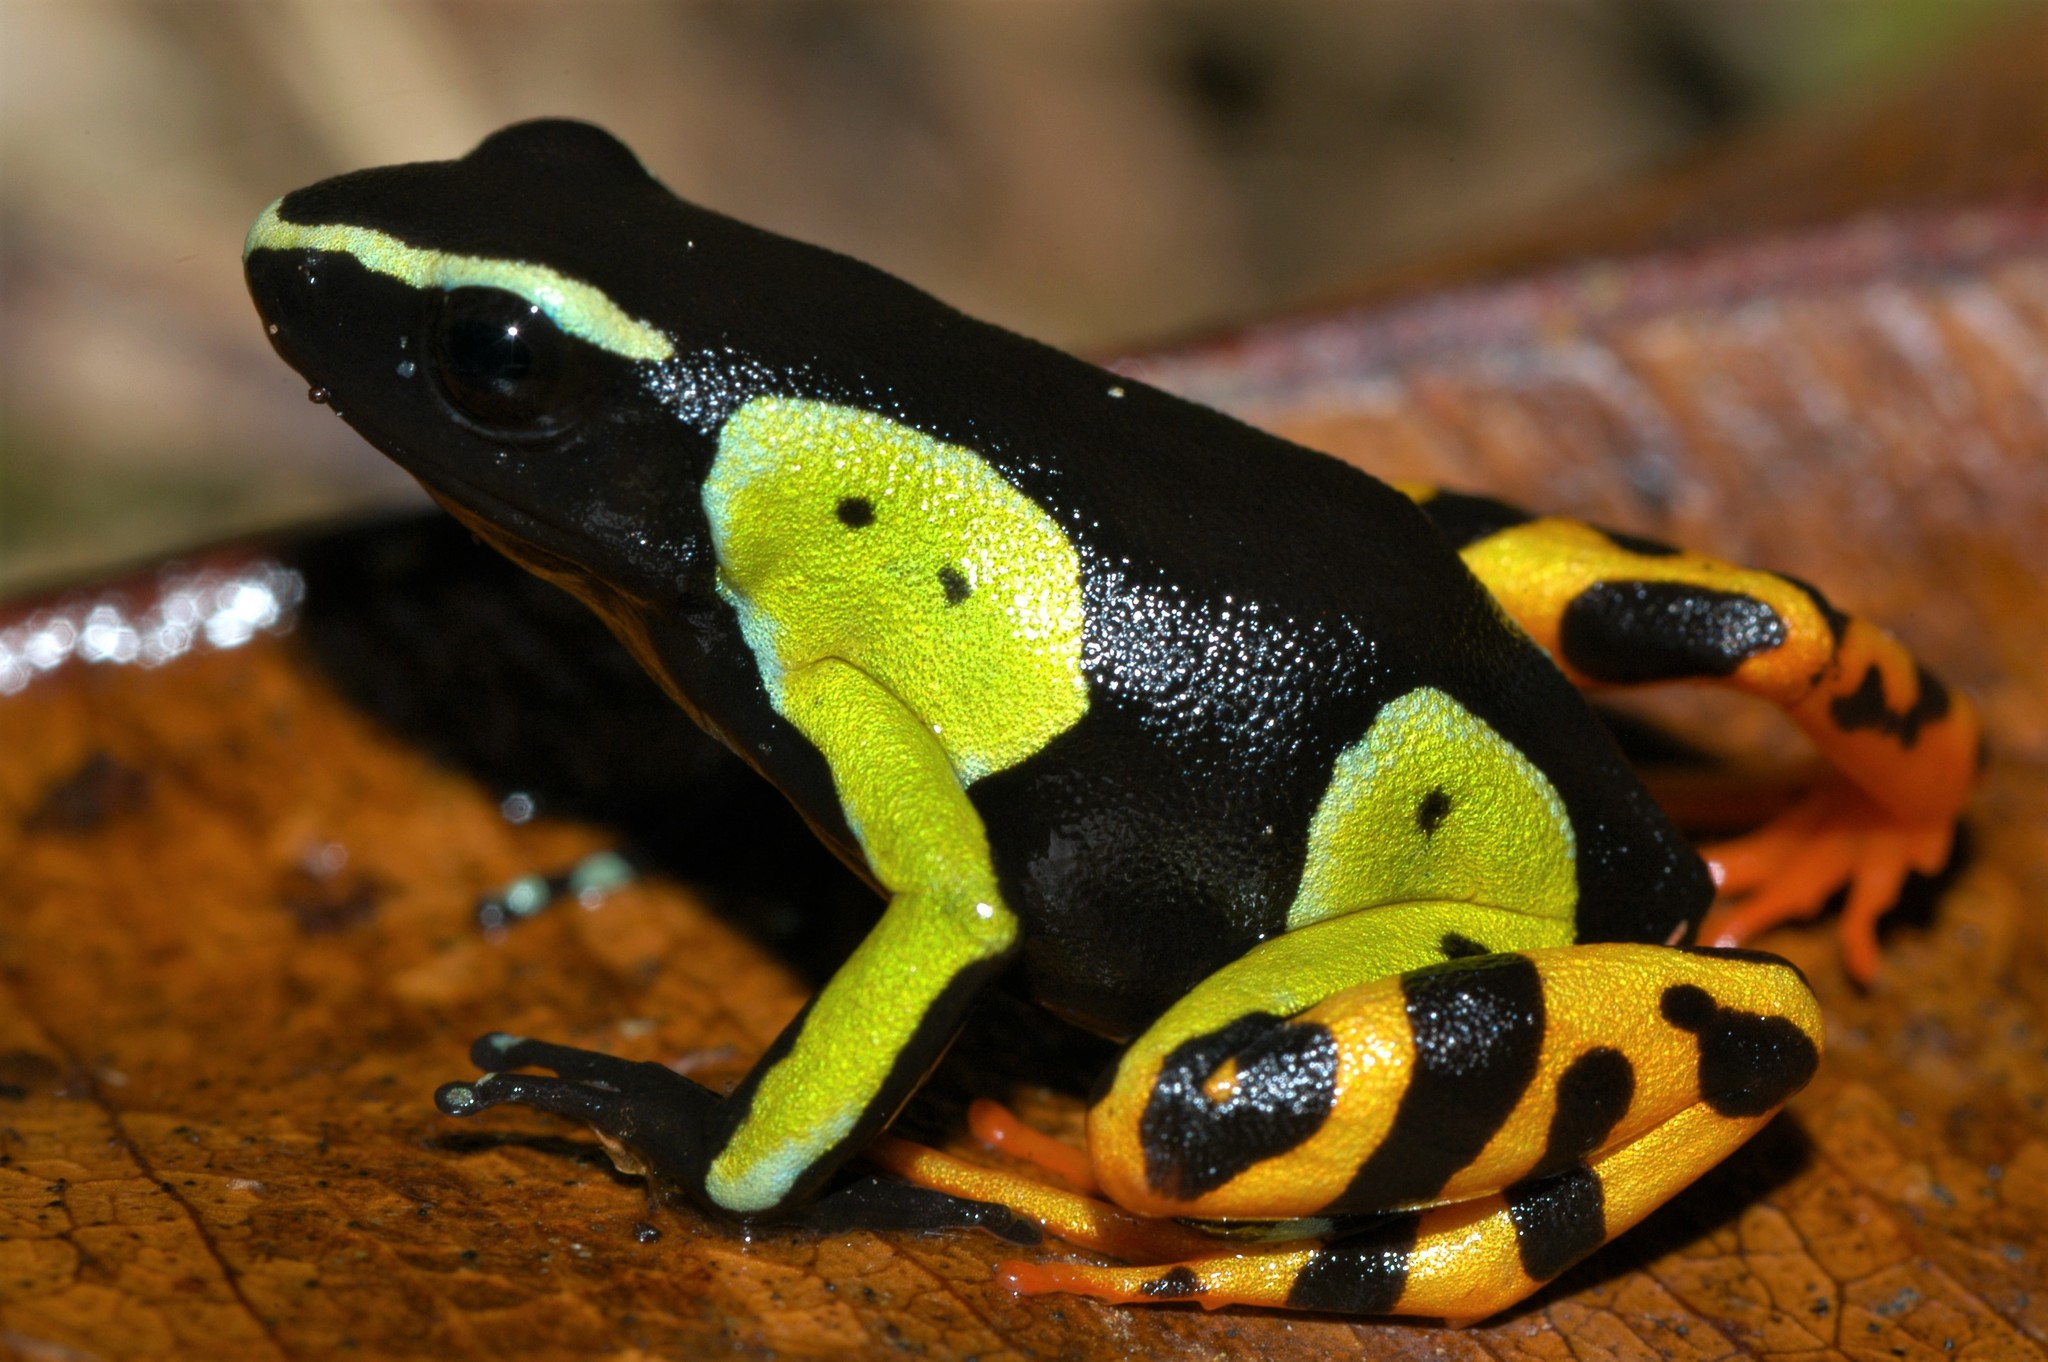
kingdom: Animalia
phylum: Chordata
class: Amphibia
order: Anura
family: Mantellidae
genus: Mantella
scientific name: Mantella baroni
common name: Baron's mantella
